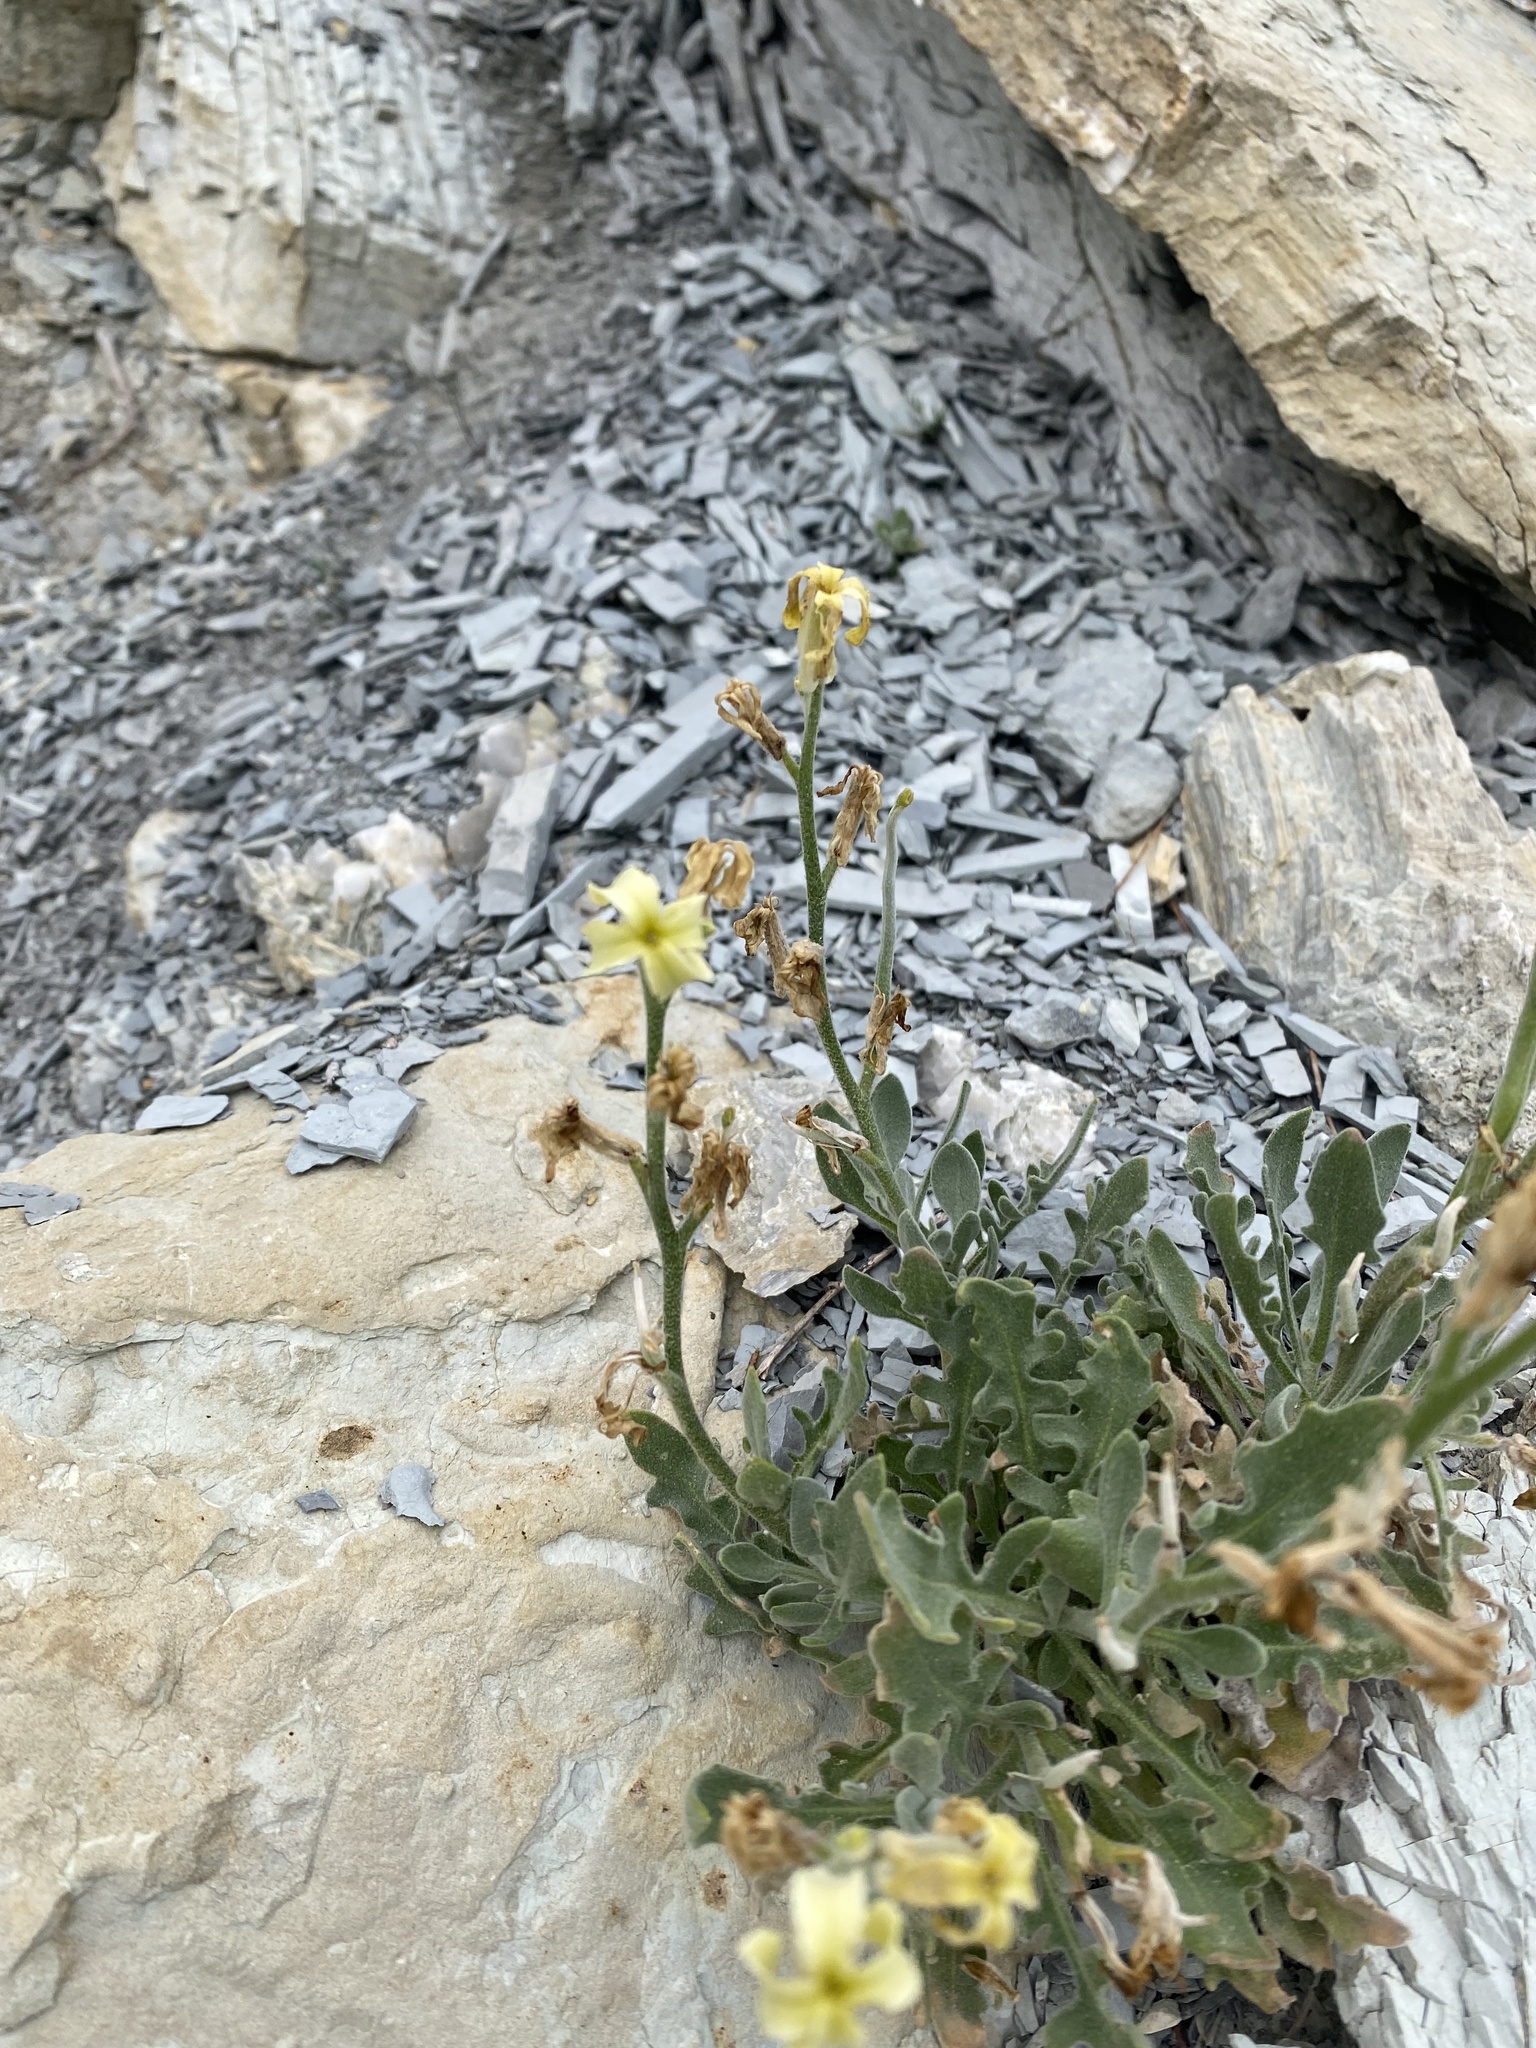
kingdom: Plantae
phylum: Tracheophyta
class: Magnoliopsida
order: Brassicales
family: Brassicaceae
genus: Matthiola
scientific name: Matthiola odoratissima
